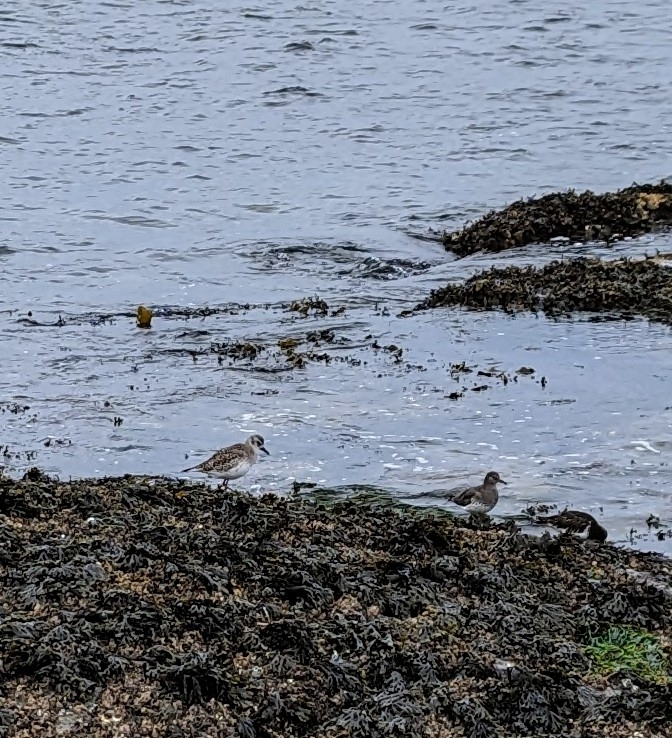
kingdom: Animalia
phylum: Chordata
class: Aves
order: Charadriiformes
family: Charadriidae
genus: Pluvialis
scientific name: Pluvialis squatarola
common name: Grey plover
